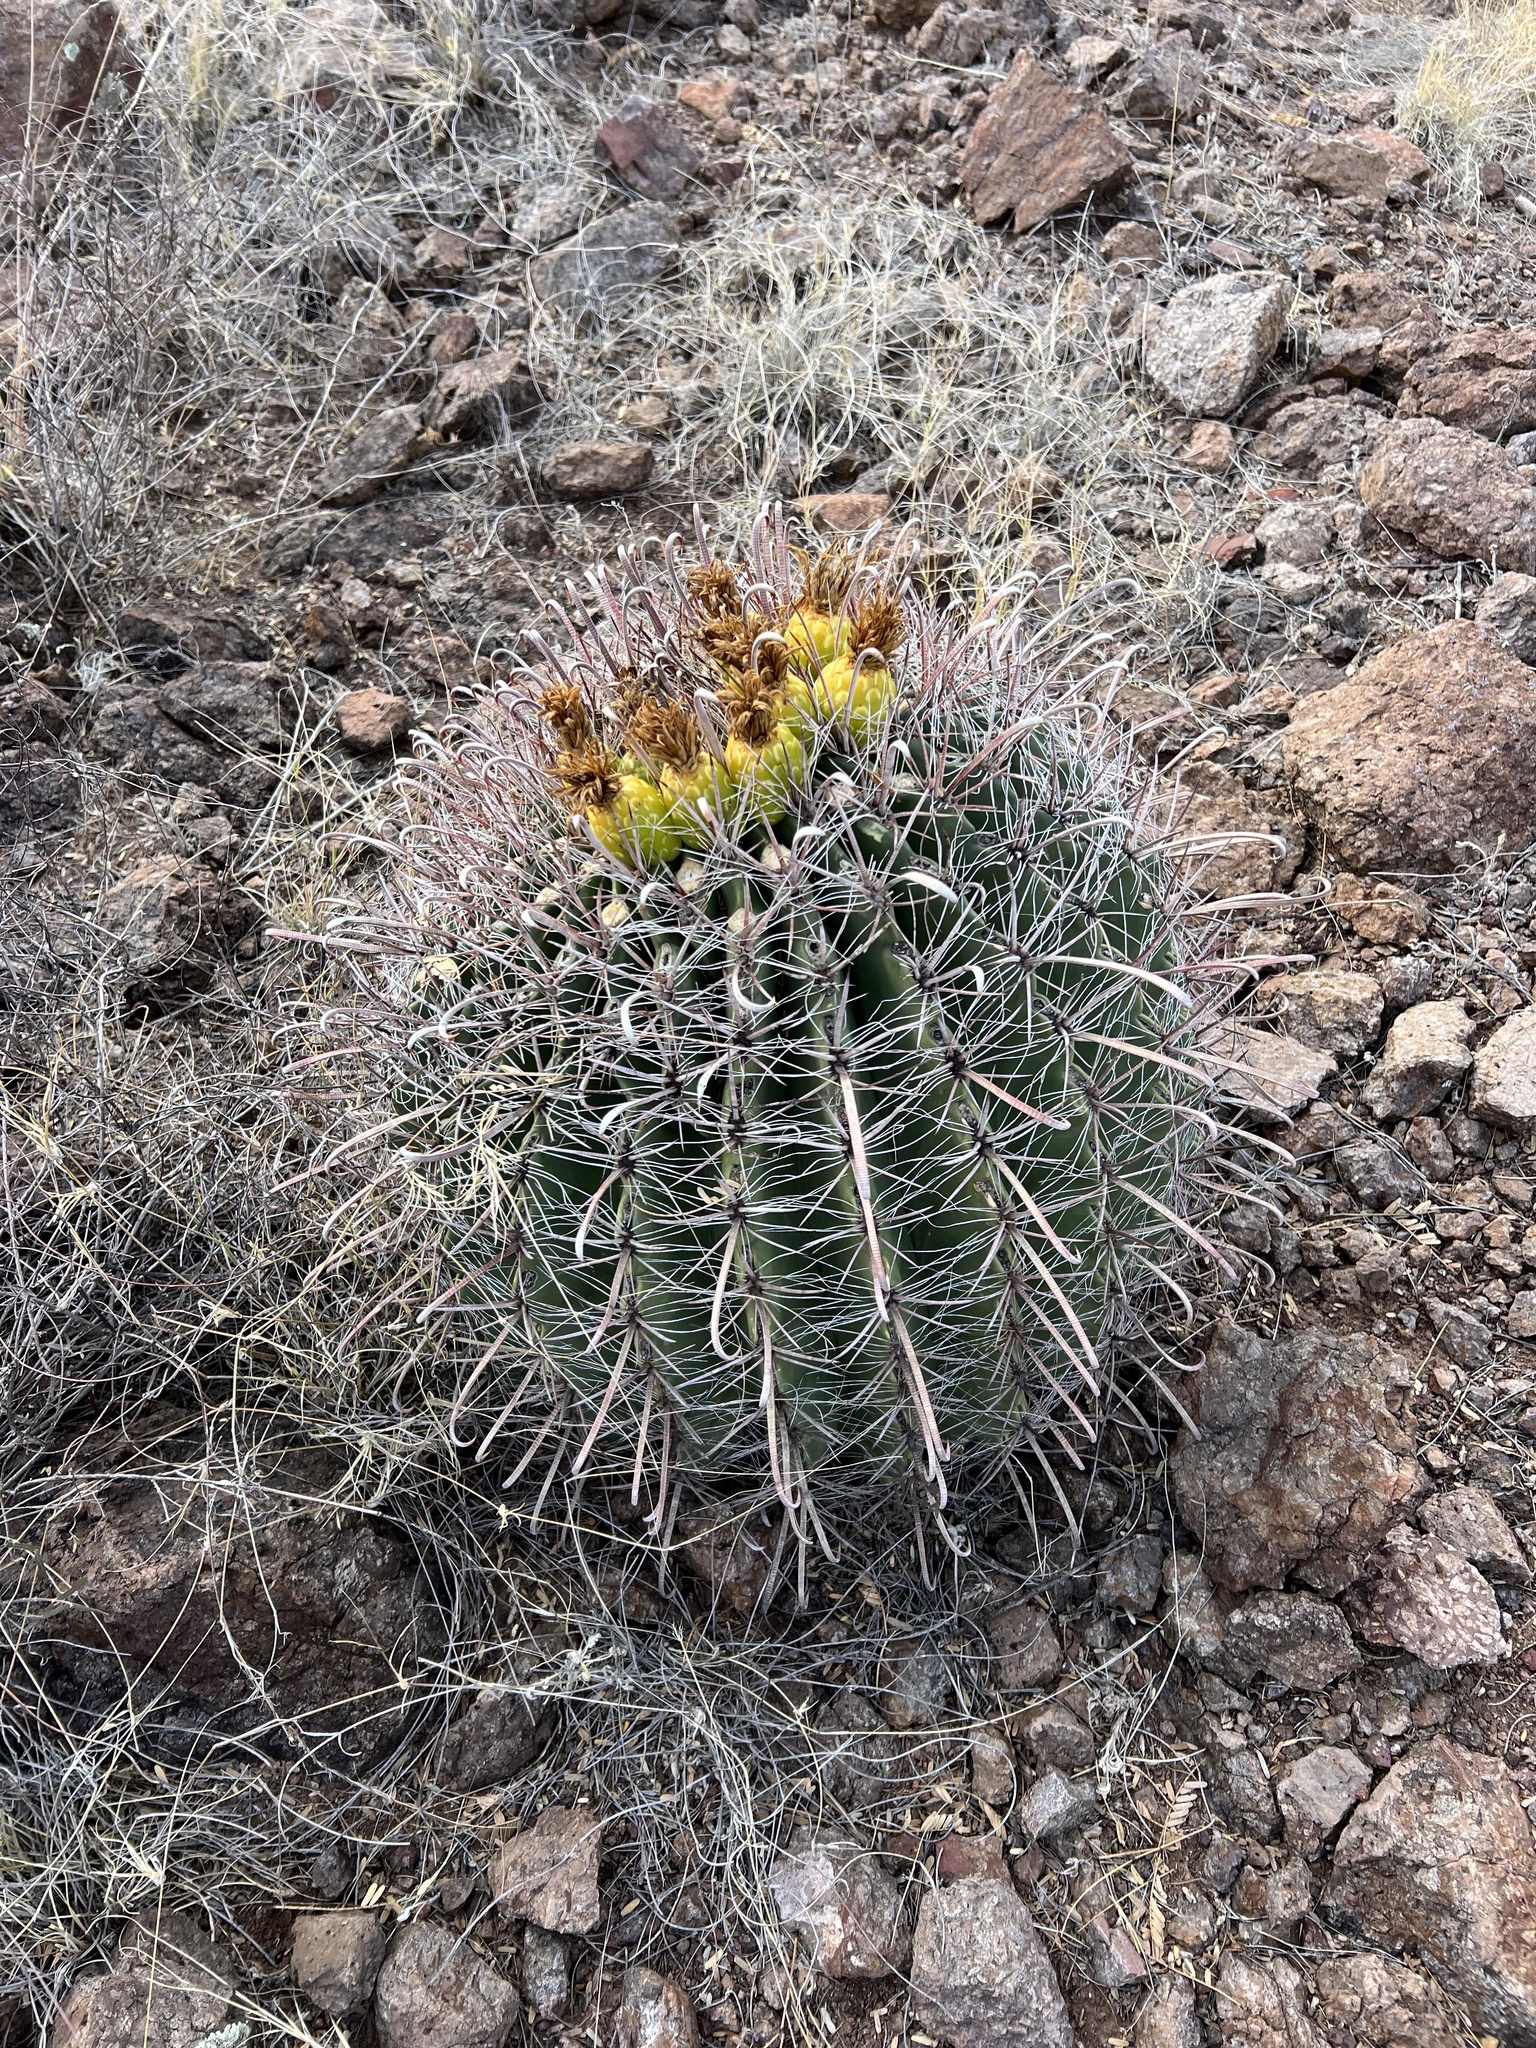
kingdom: Plantae
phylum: Tracheophyta
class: Magnoliopsida
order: Caryophyllales
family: Cactaceae
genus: Ferocactus
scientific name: Ferocactus wislizeni
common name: Candy barrel cactus
